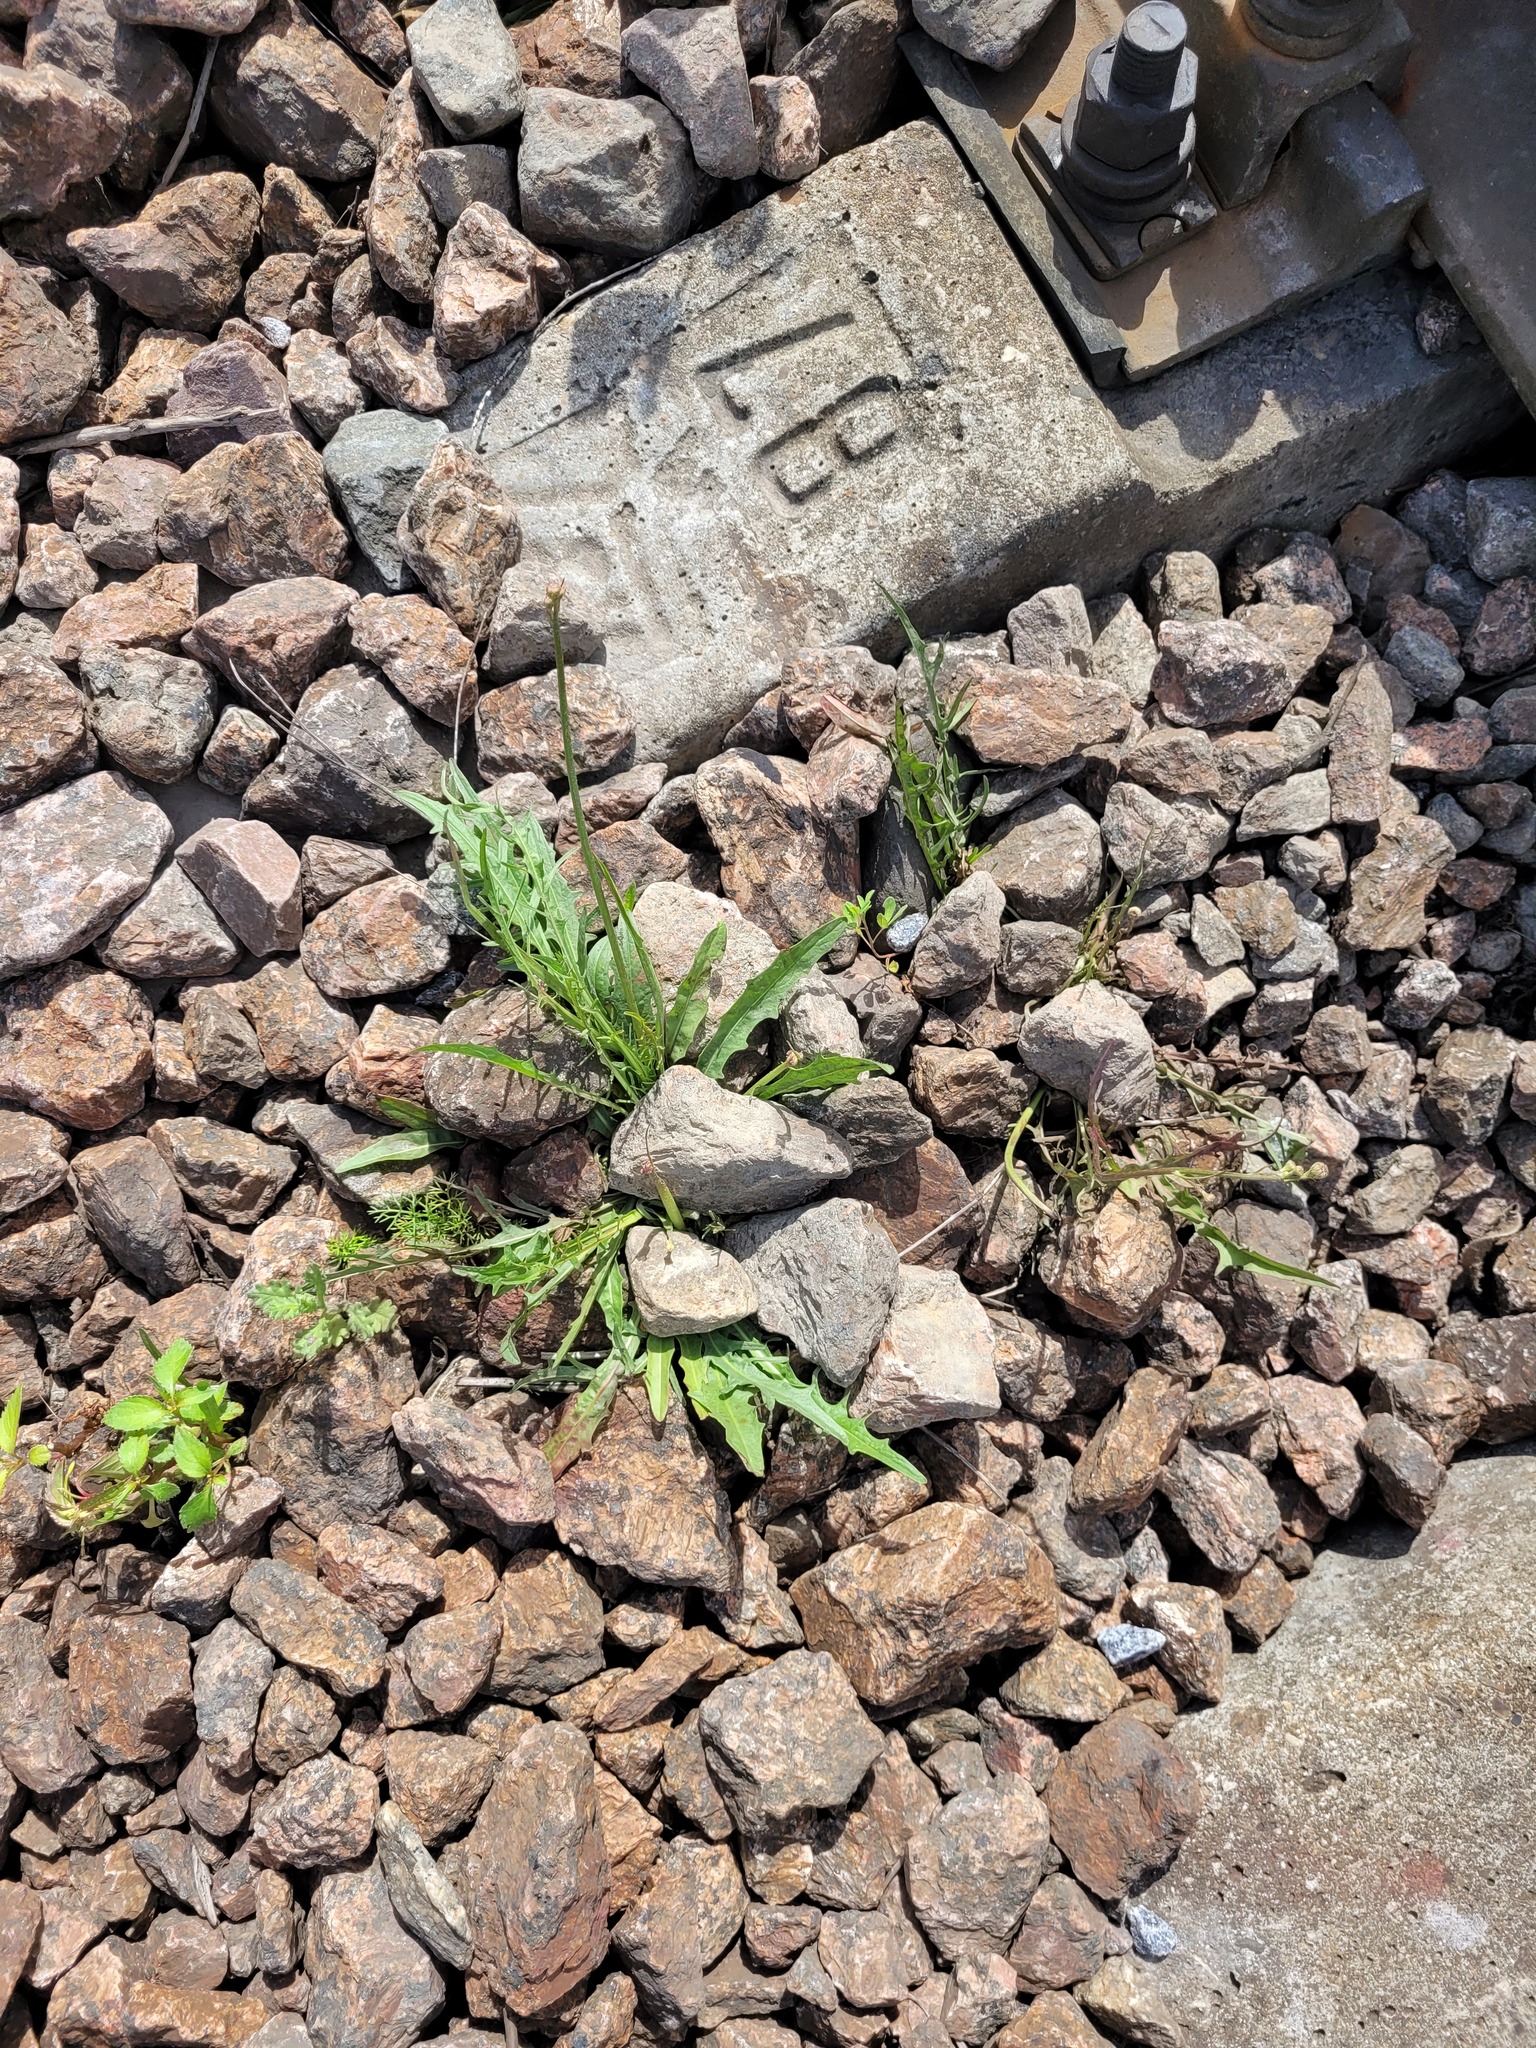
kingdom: Plantae
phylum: Tracheophyta
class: Magnoliopsida
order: Asterales
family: Asteraceae
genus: Scorzoneroides
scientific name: Scorzoneroides autumnalis
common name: Autumn hawkbit
